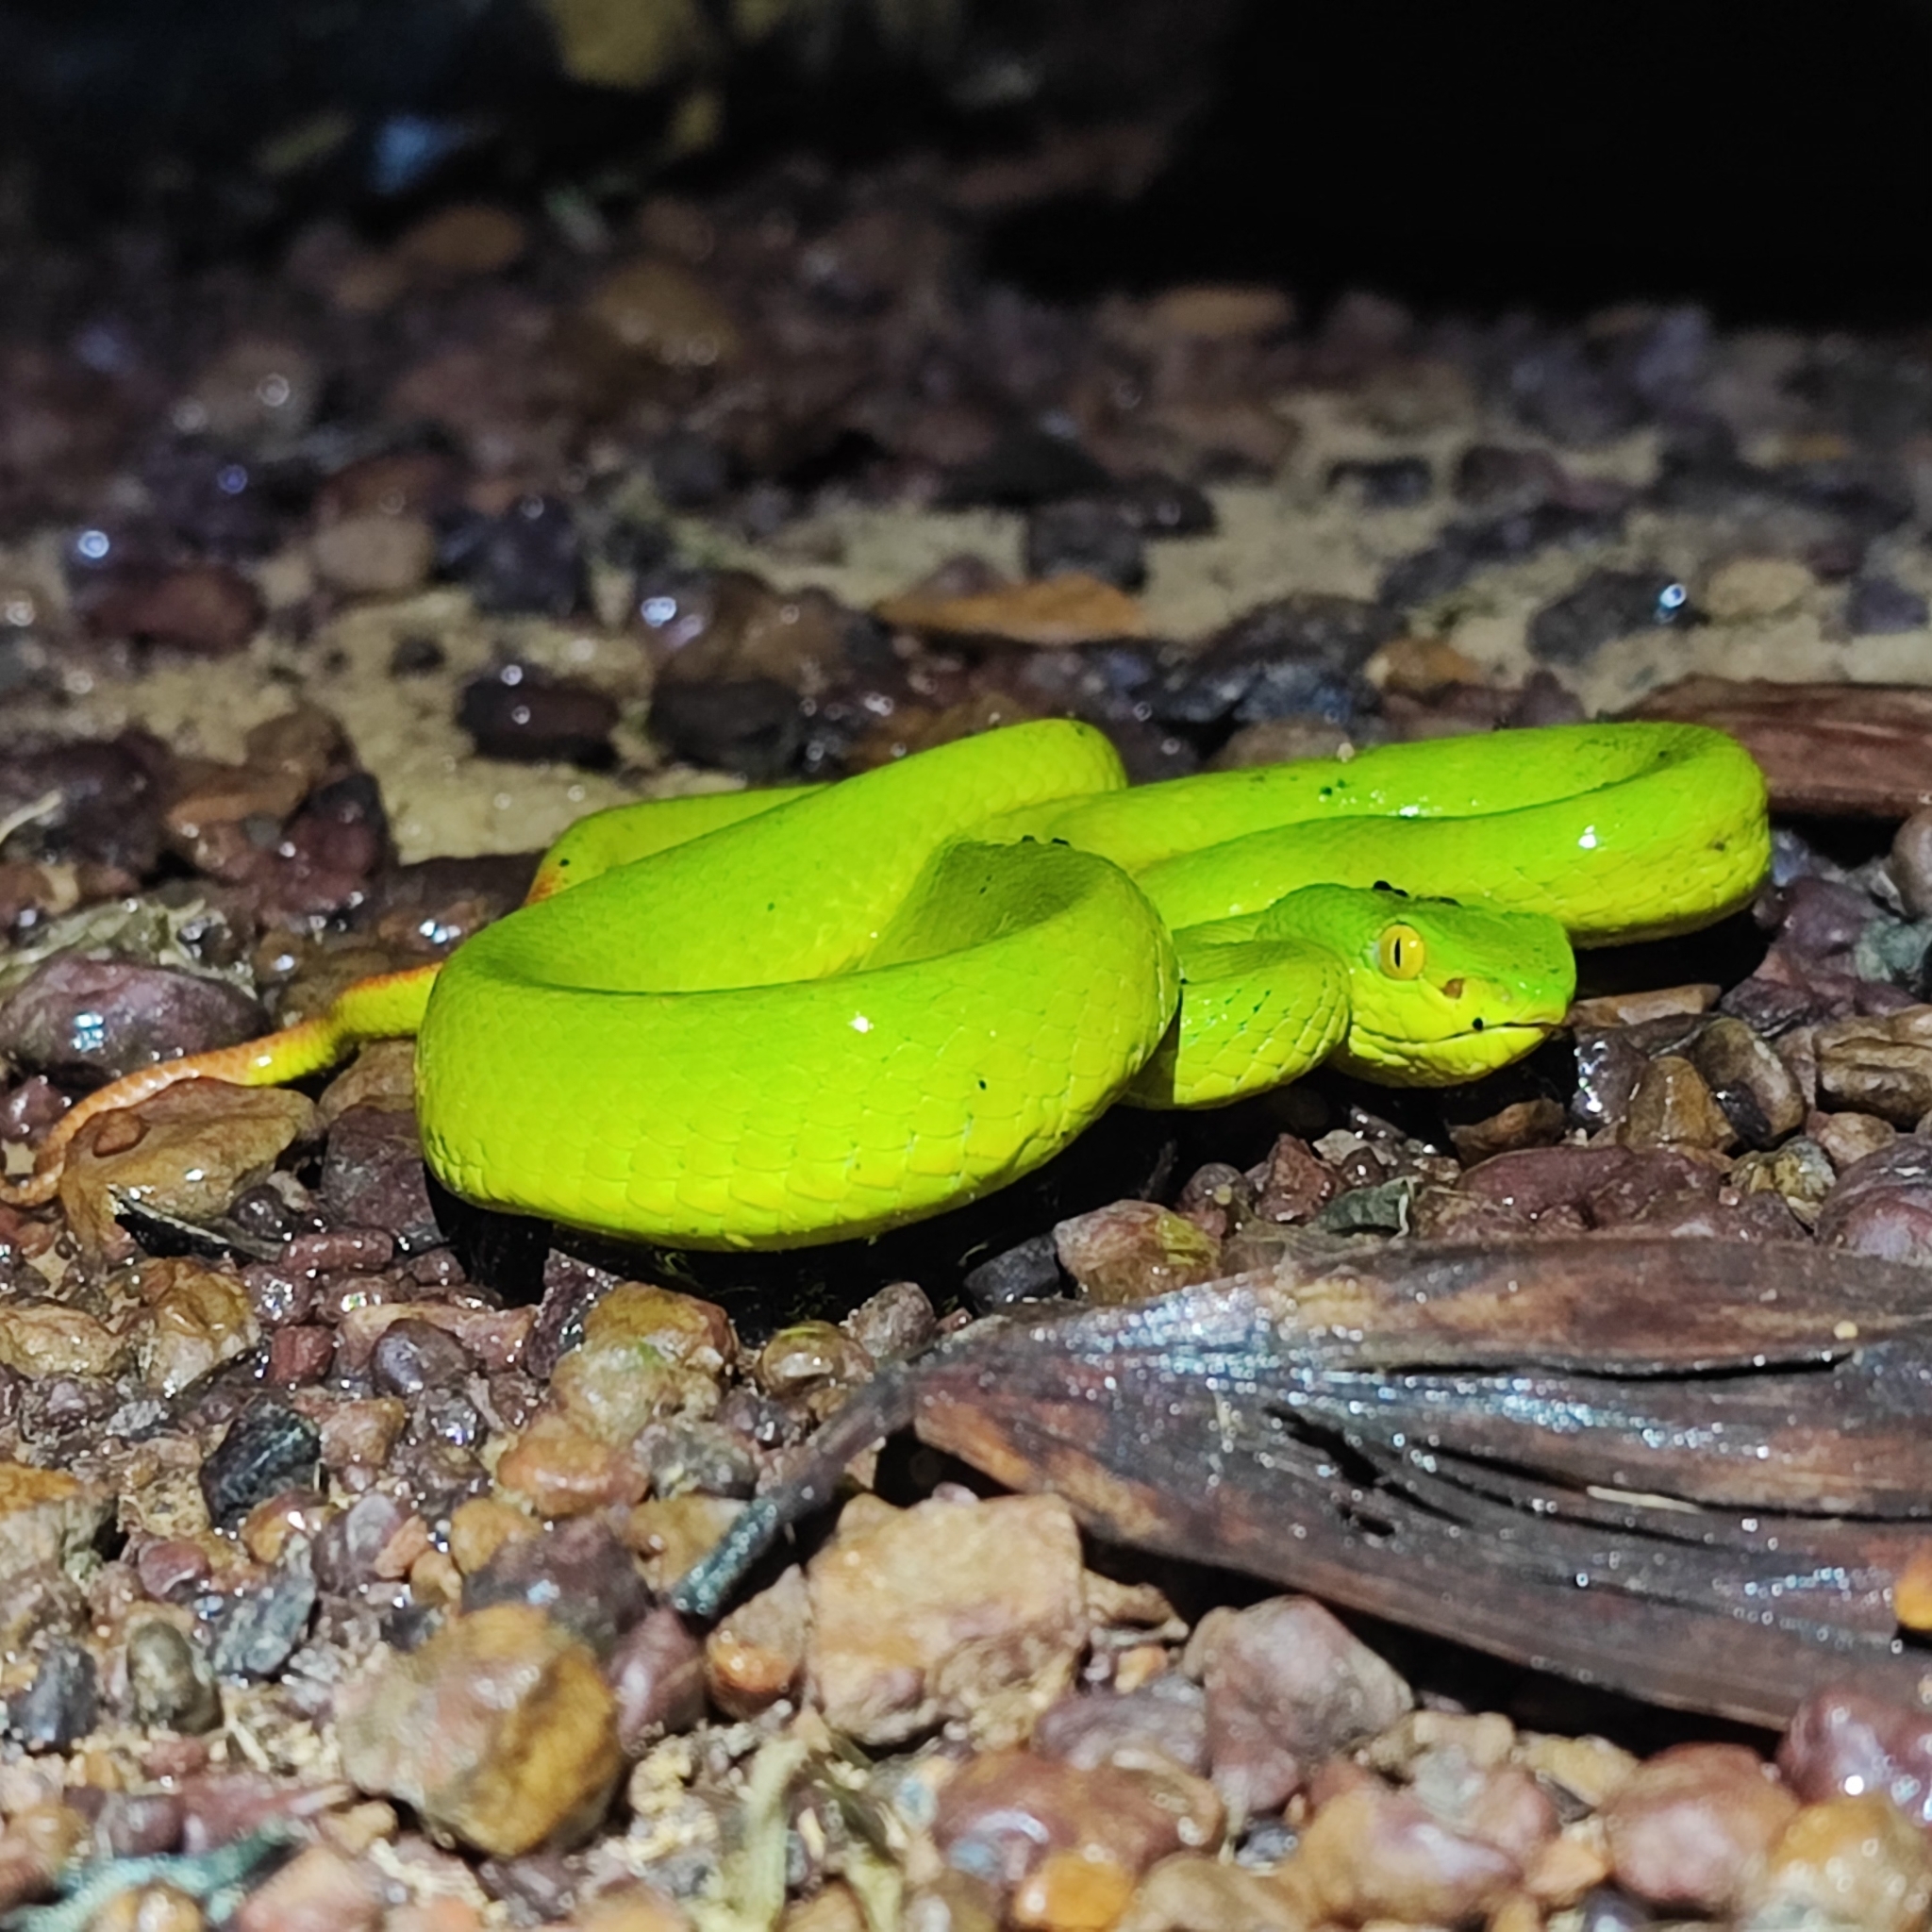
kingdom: Animalia
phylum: Chordata
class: Squamata
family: Viperidae
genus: Trimeresurus
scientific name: Trimeresurus albolabris
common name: White-lipped pitviper
